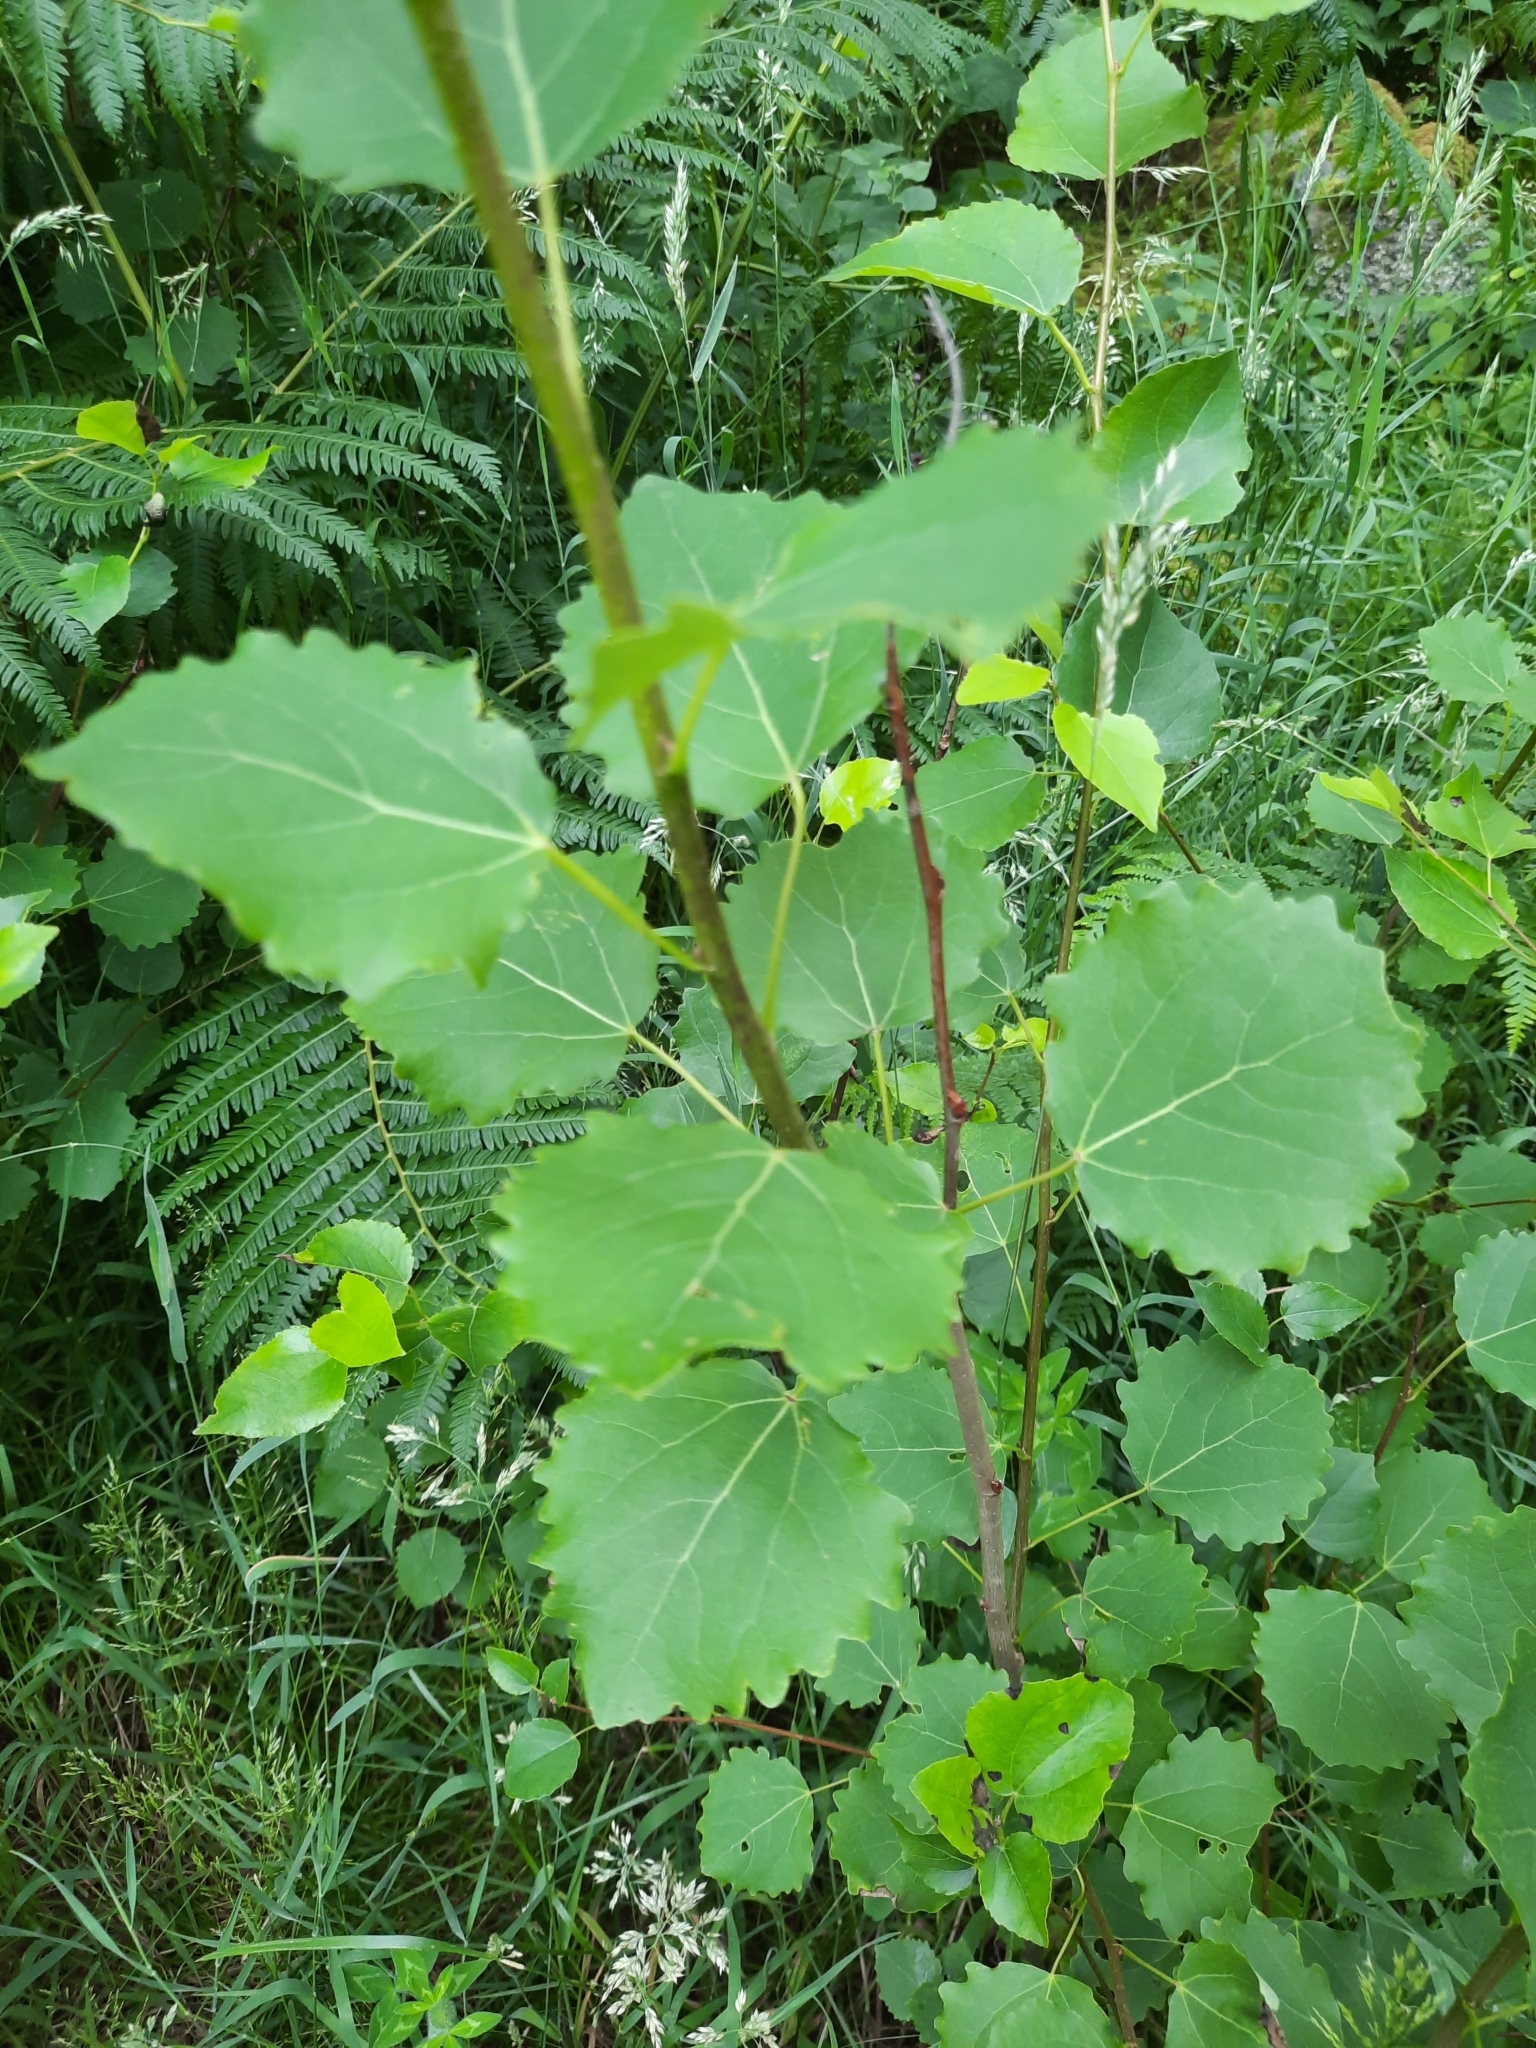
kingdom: Plantae
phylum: Tracheophyta
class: Magnoliopsida
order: Malpighiales
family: Salicaceae
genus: Populus
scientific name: Populus tremula
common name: European aspen
